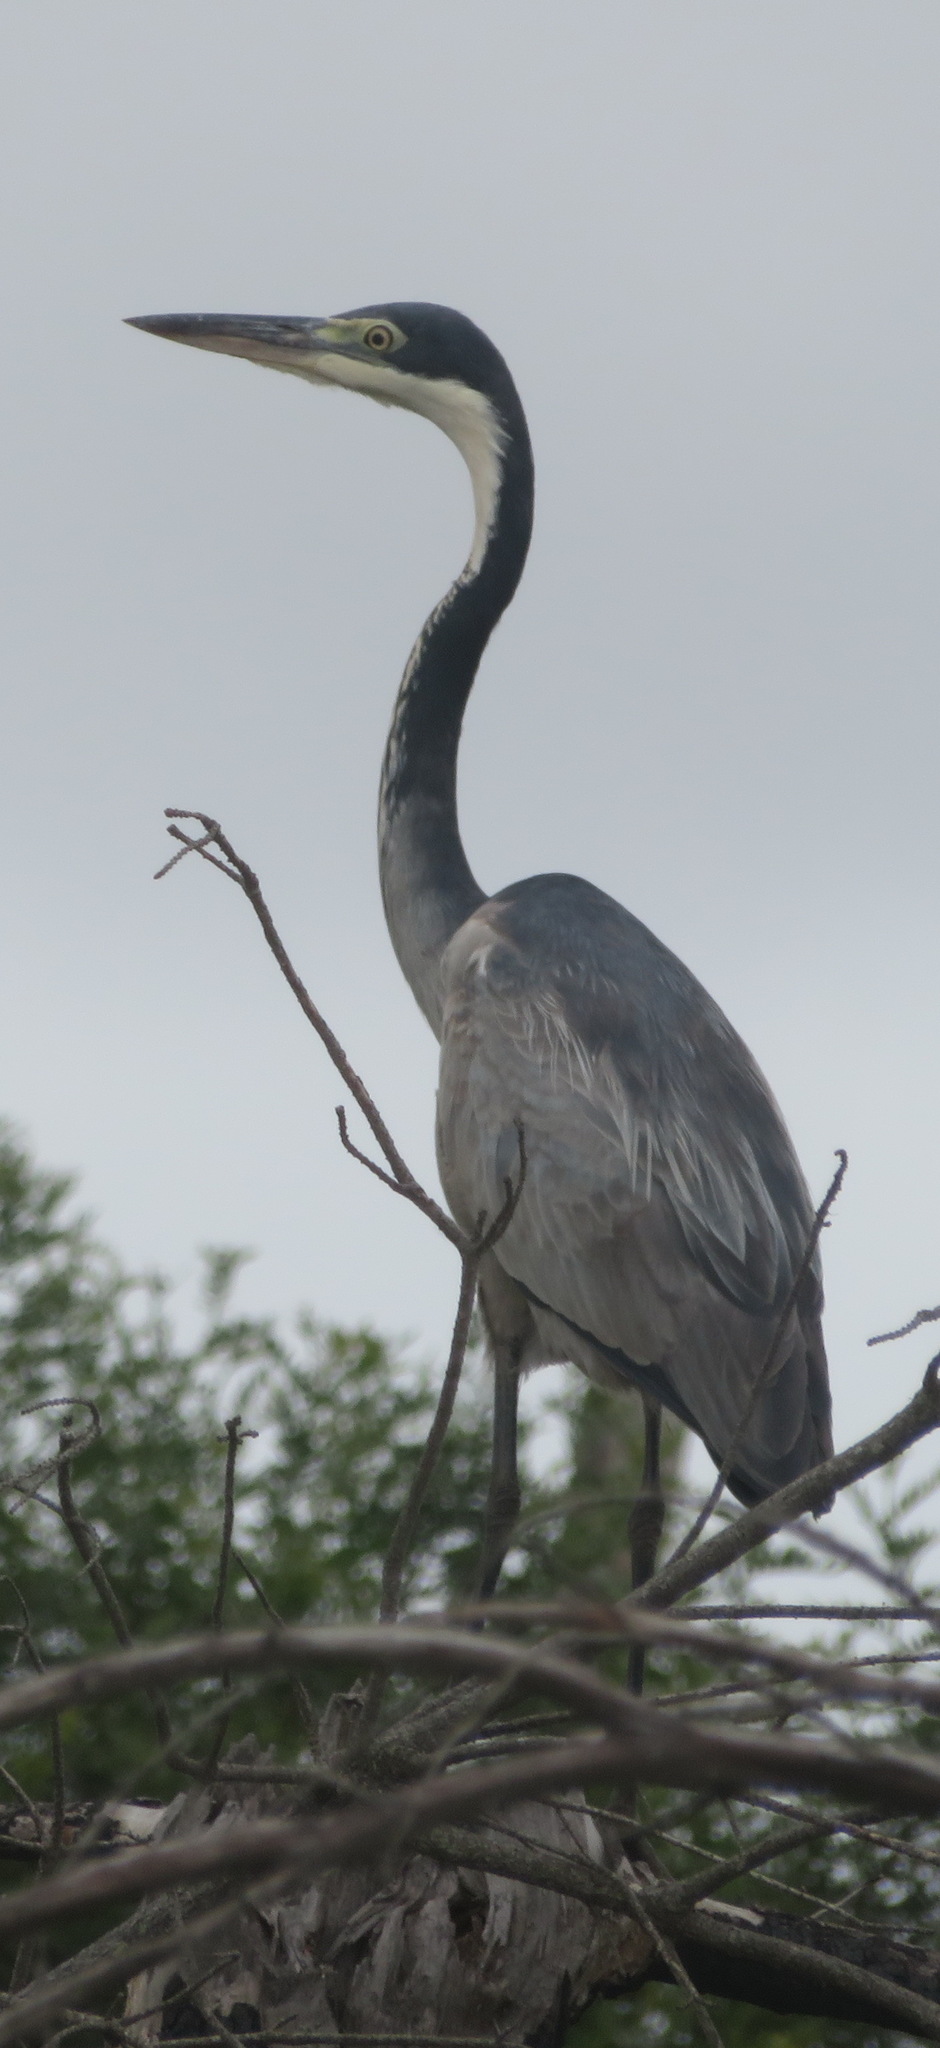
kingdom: Animalia
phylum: Chordata
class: Aves
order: Pelecaniformes
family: Ardeidae
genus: Ardea
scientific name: Ardea melanocephala
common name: Black-headed heron
